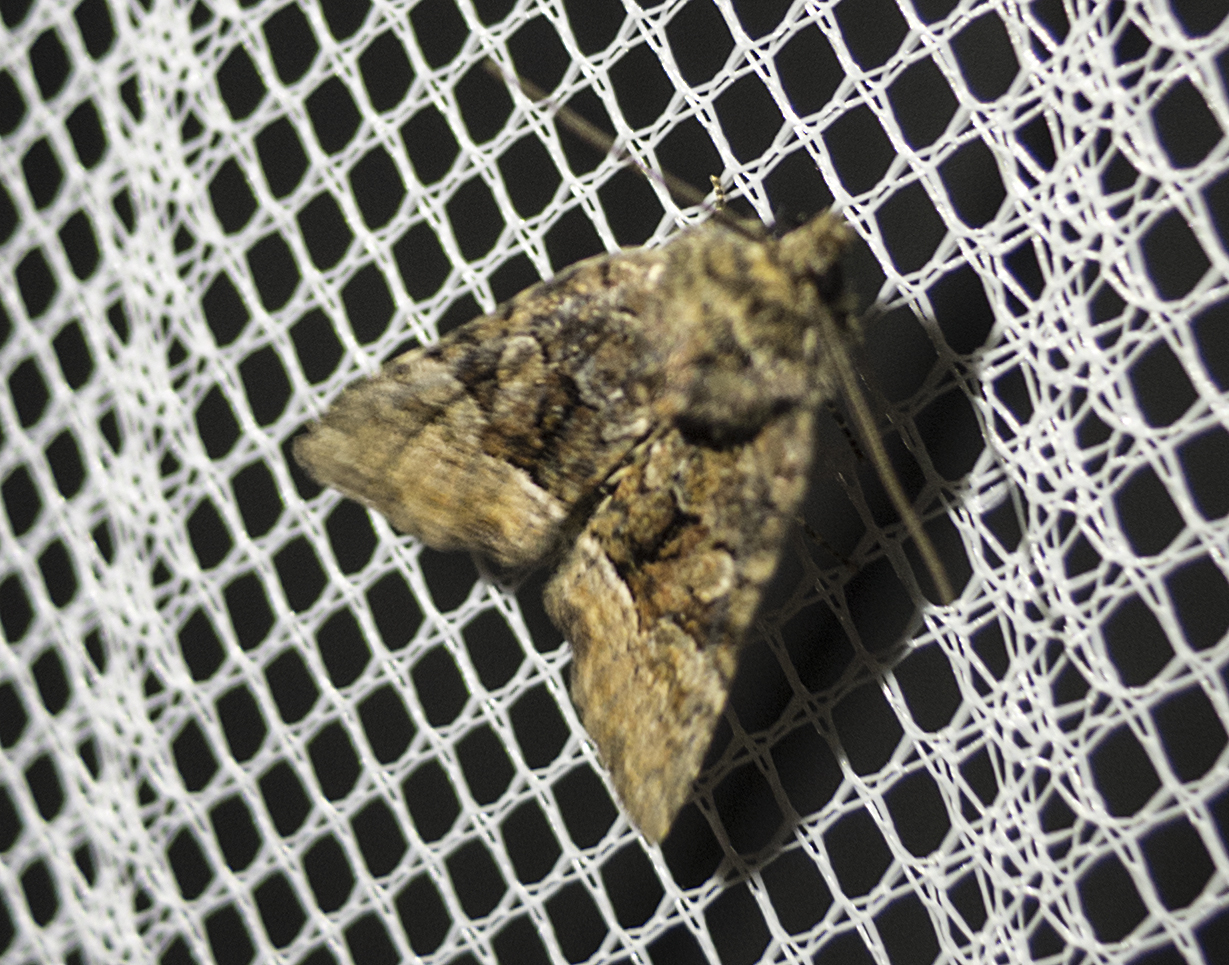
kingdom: Animalia
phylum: Arthropoda
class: Insecta
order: Lepidoptera
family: Noctuidae
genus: Oligia
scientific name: Oligia
